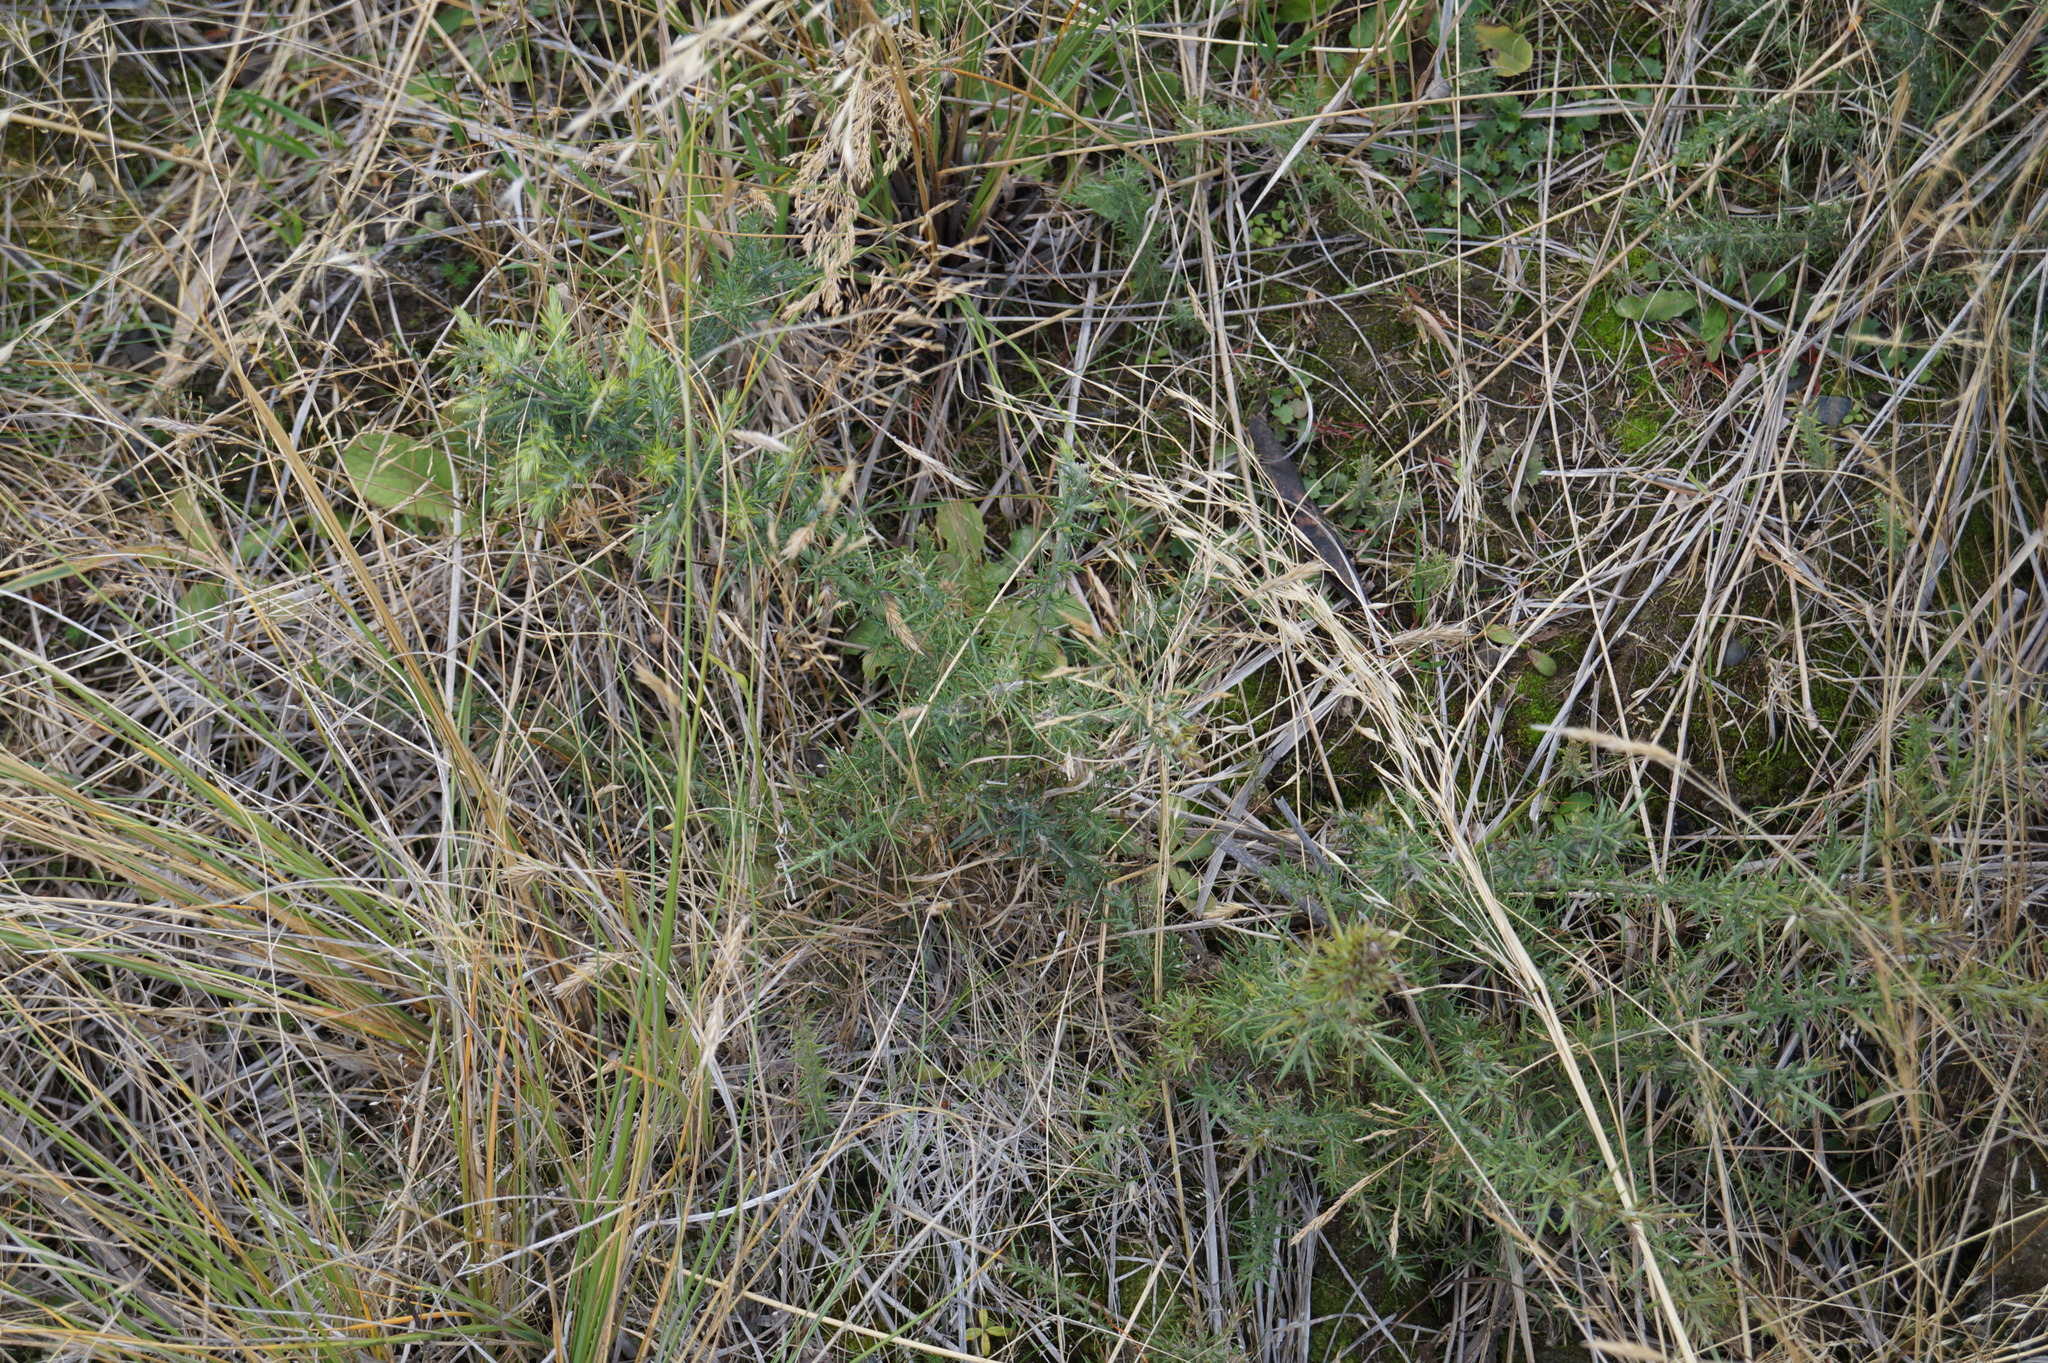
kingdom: Plantae
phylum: Tracheophyta
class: Magnoliopsida
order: Fabales
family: Fabaceae
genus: Ulex
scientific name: Ulex europaeus
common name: Common gorse
